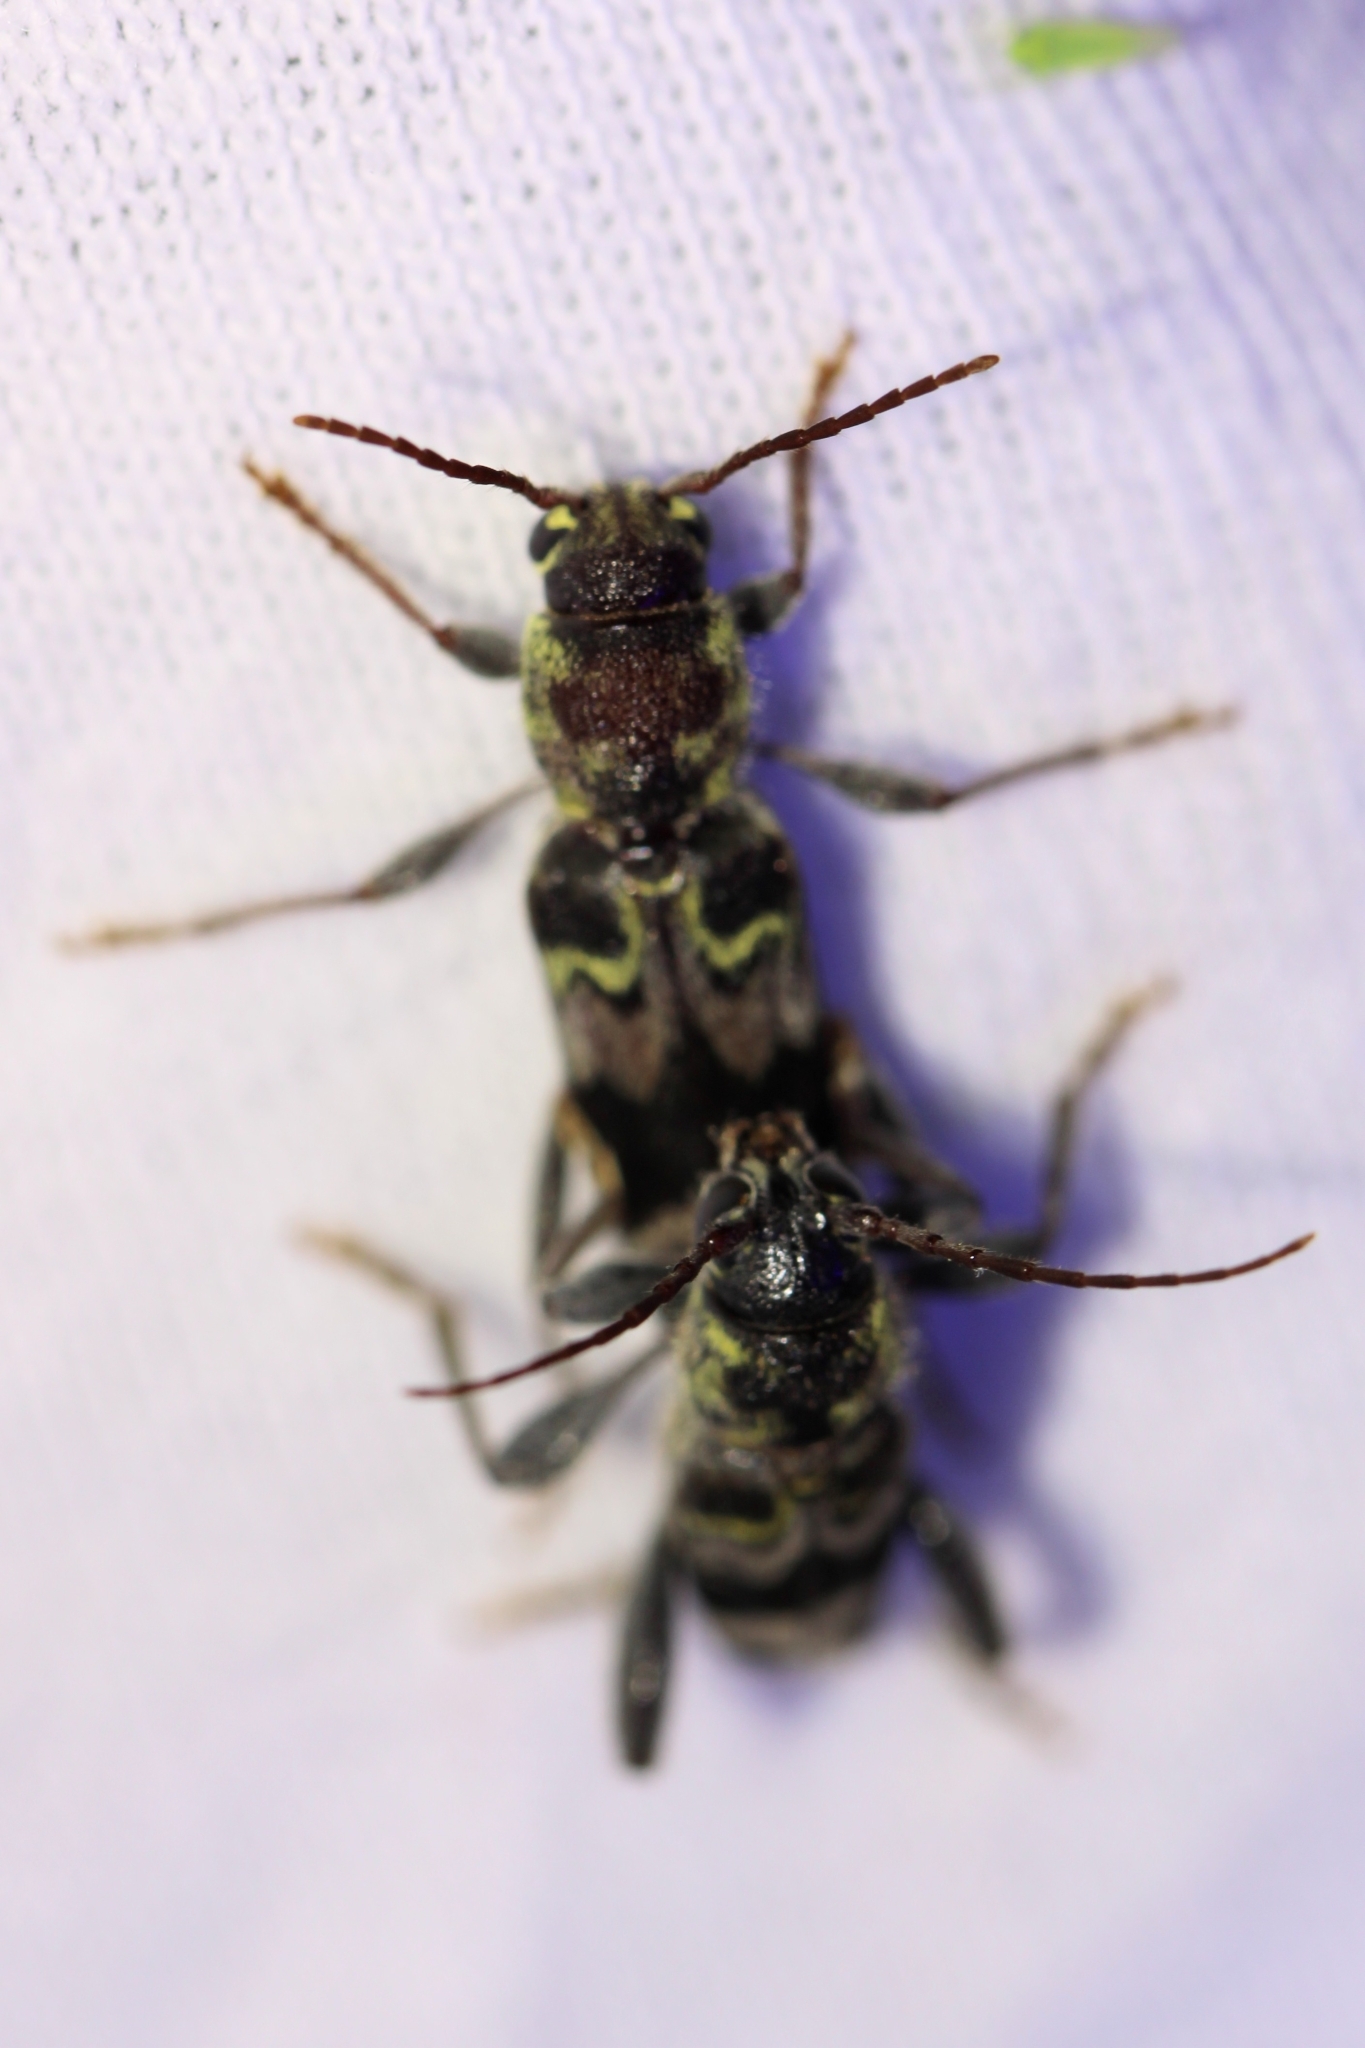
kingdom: Animalia
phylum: Arthropoda
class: Insecta
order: Coleoptera
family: Cerambycidae
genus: Xylotrechus
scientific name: Xylotrechus colonus
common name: Long-horned beetle
